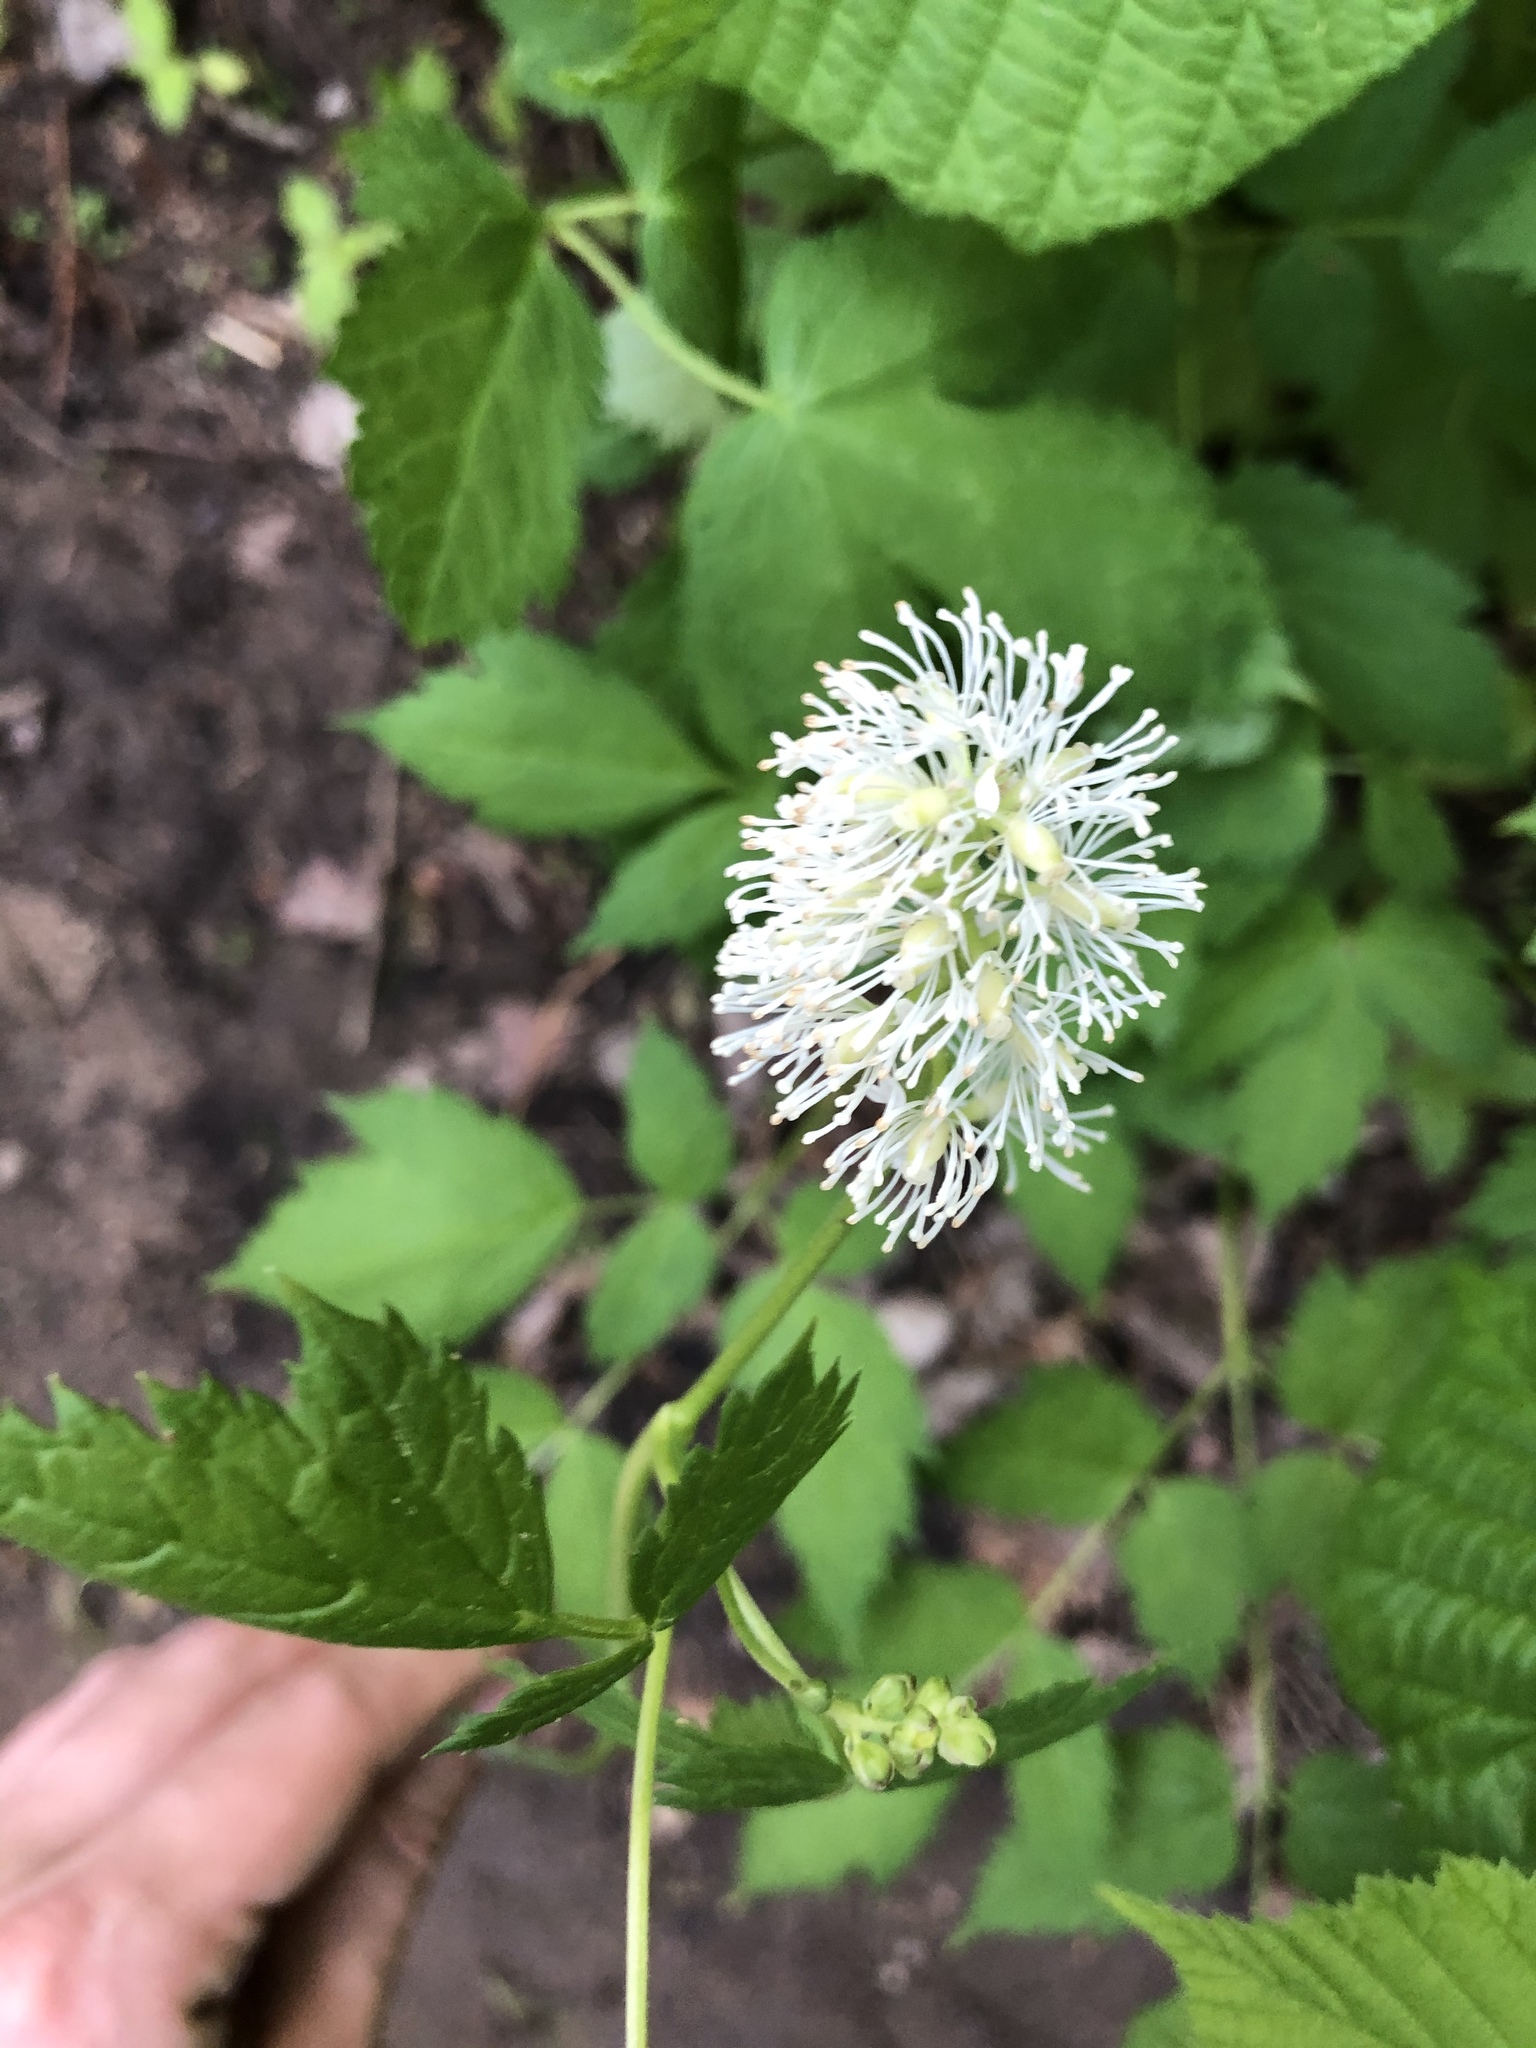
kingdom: Plantae
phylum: Tracheophyta
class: Magnoliopsida
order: Ranunculales
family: Ranunculaceae
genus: Actaea
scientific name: Actaea spicata
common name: Baneberry
